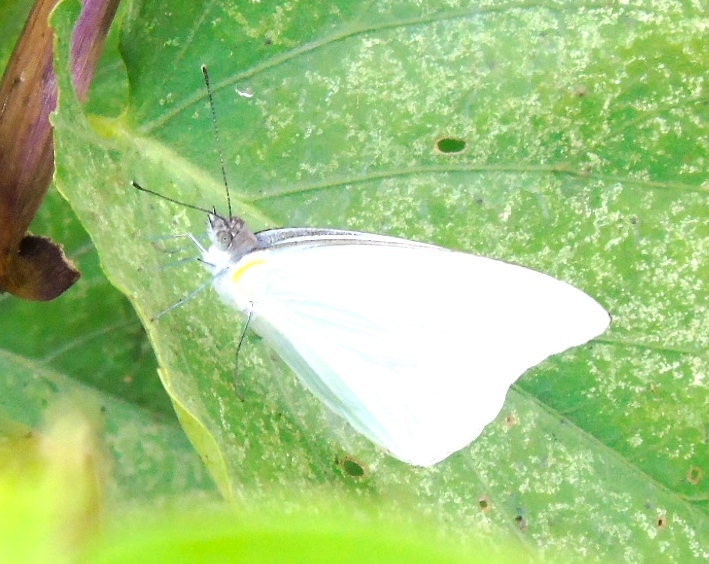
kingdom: Animalia
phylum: Arthropoda
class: Insecta
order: Lepidoptera
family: Pieridae
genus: Glutophrissa
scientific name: Glutophrissa drusilla
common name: Florida white
